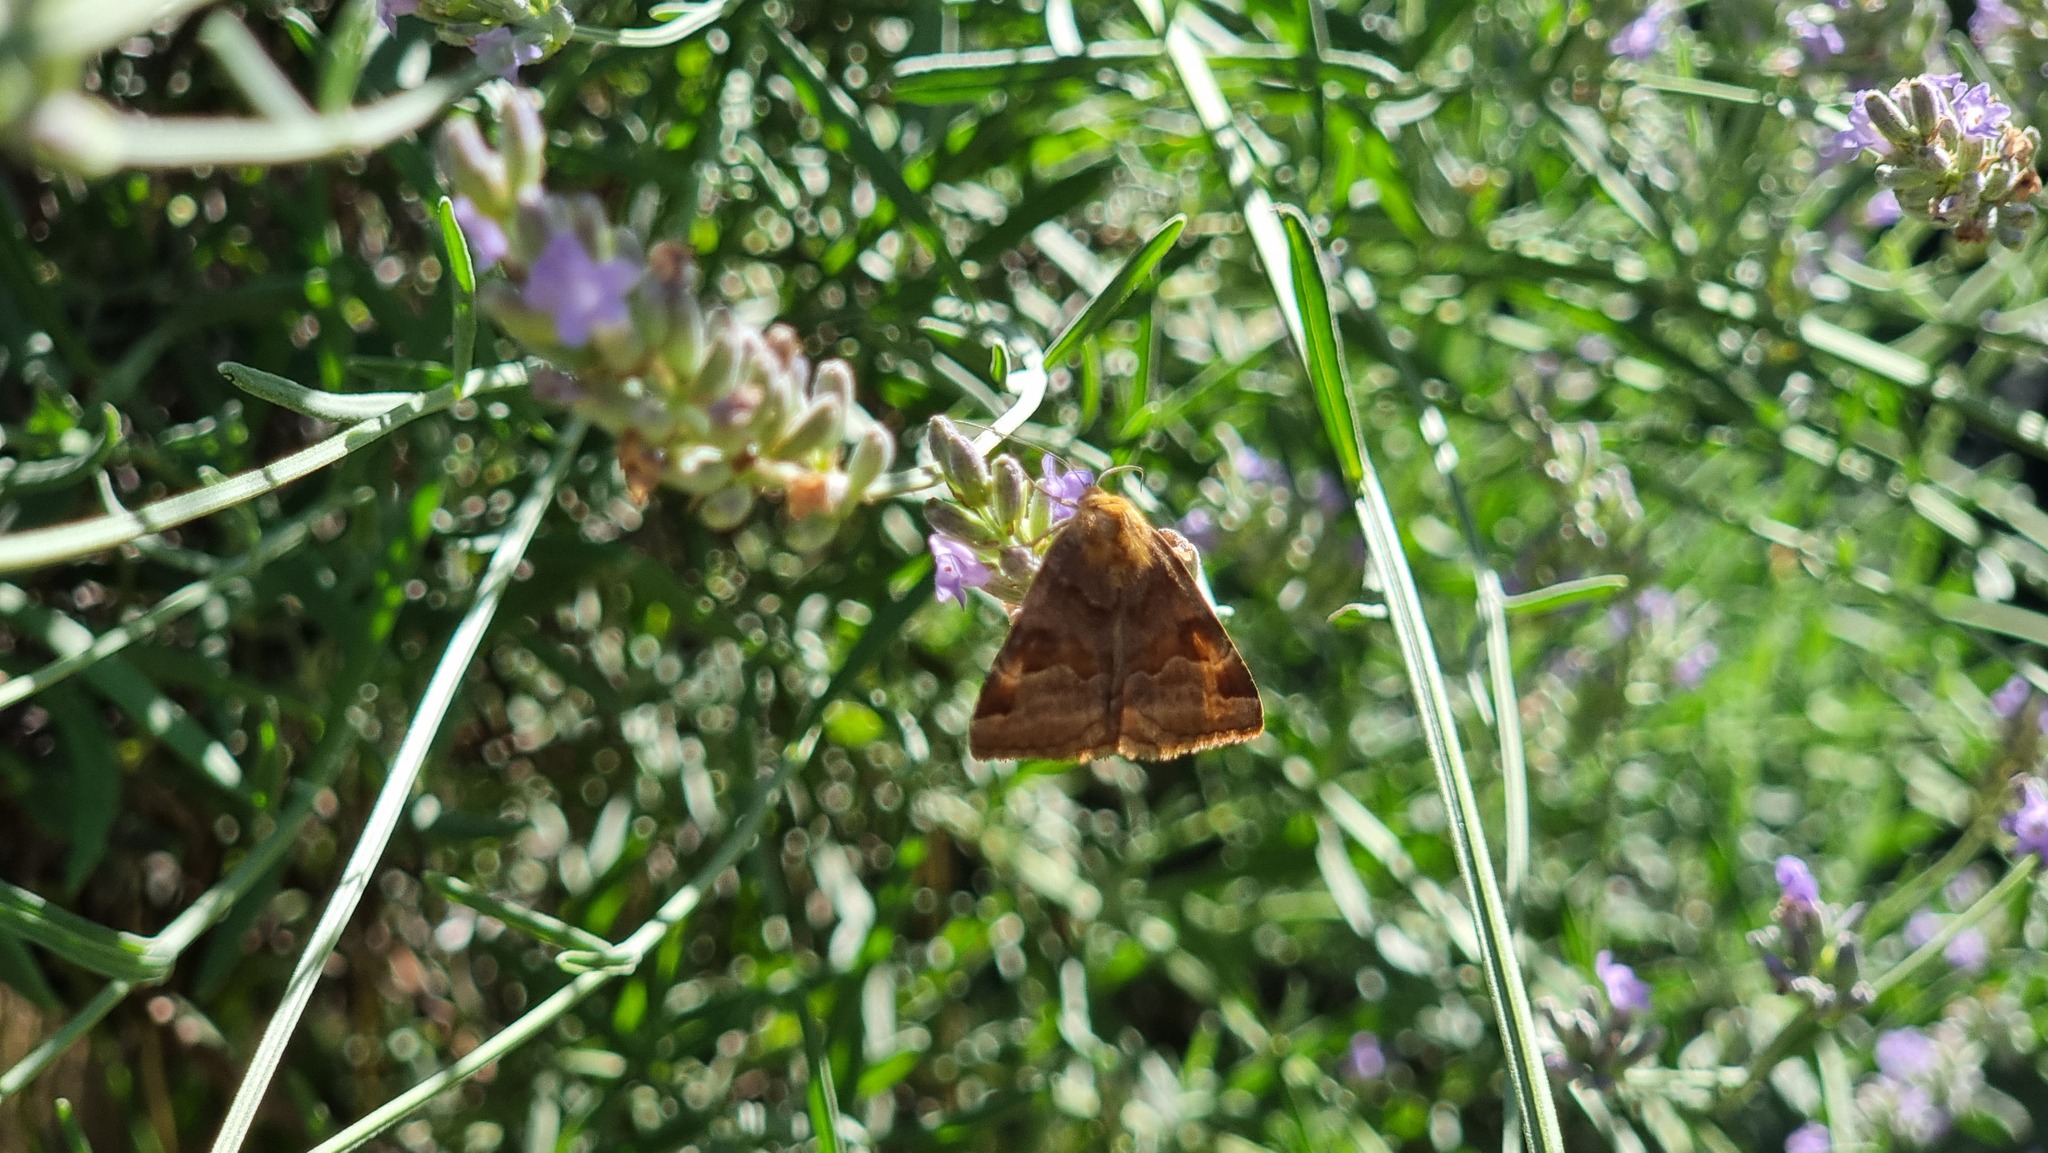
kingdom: Animalia
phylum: Arthropoda
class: Insecta
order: Lepidoptera
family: Erebidae
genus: Euclidia
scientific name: Euclidia glyphica
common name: Burnet companion
